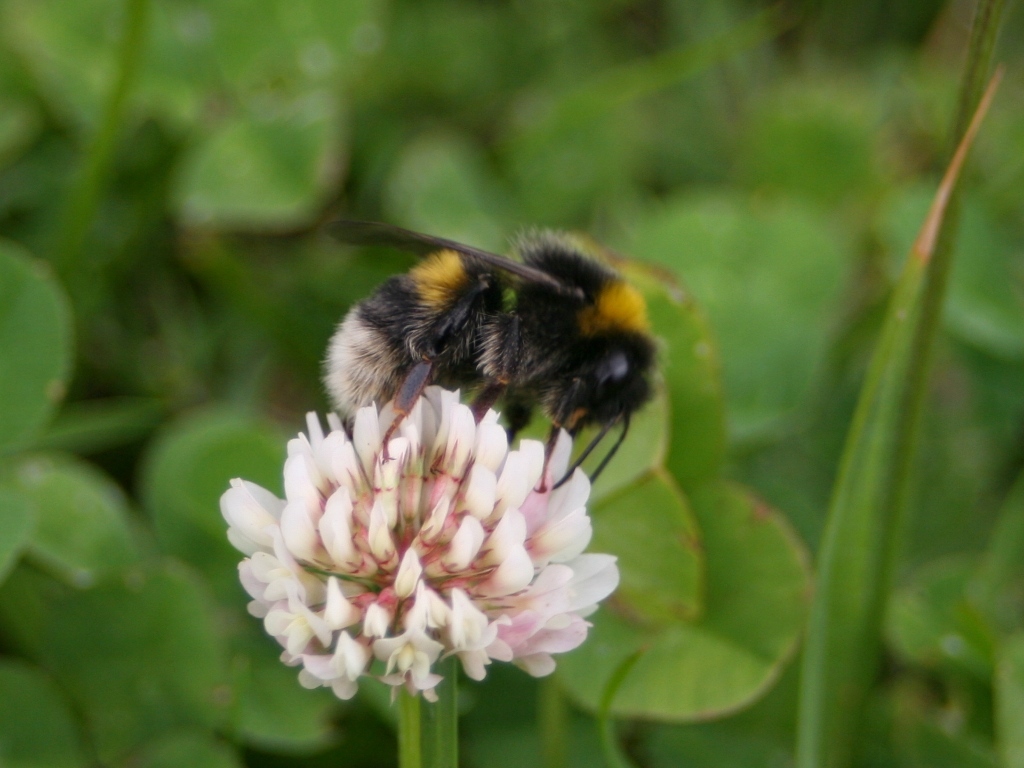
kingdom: Animalia
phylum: Arthropoda
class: Insecta
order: Hymenoptera
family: Apidae
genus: Bombus
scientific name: Bombus terrestris
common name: Buff-tailed bumblebee
